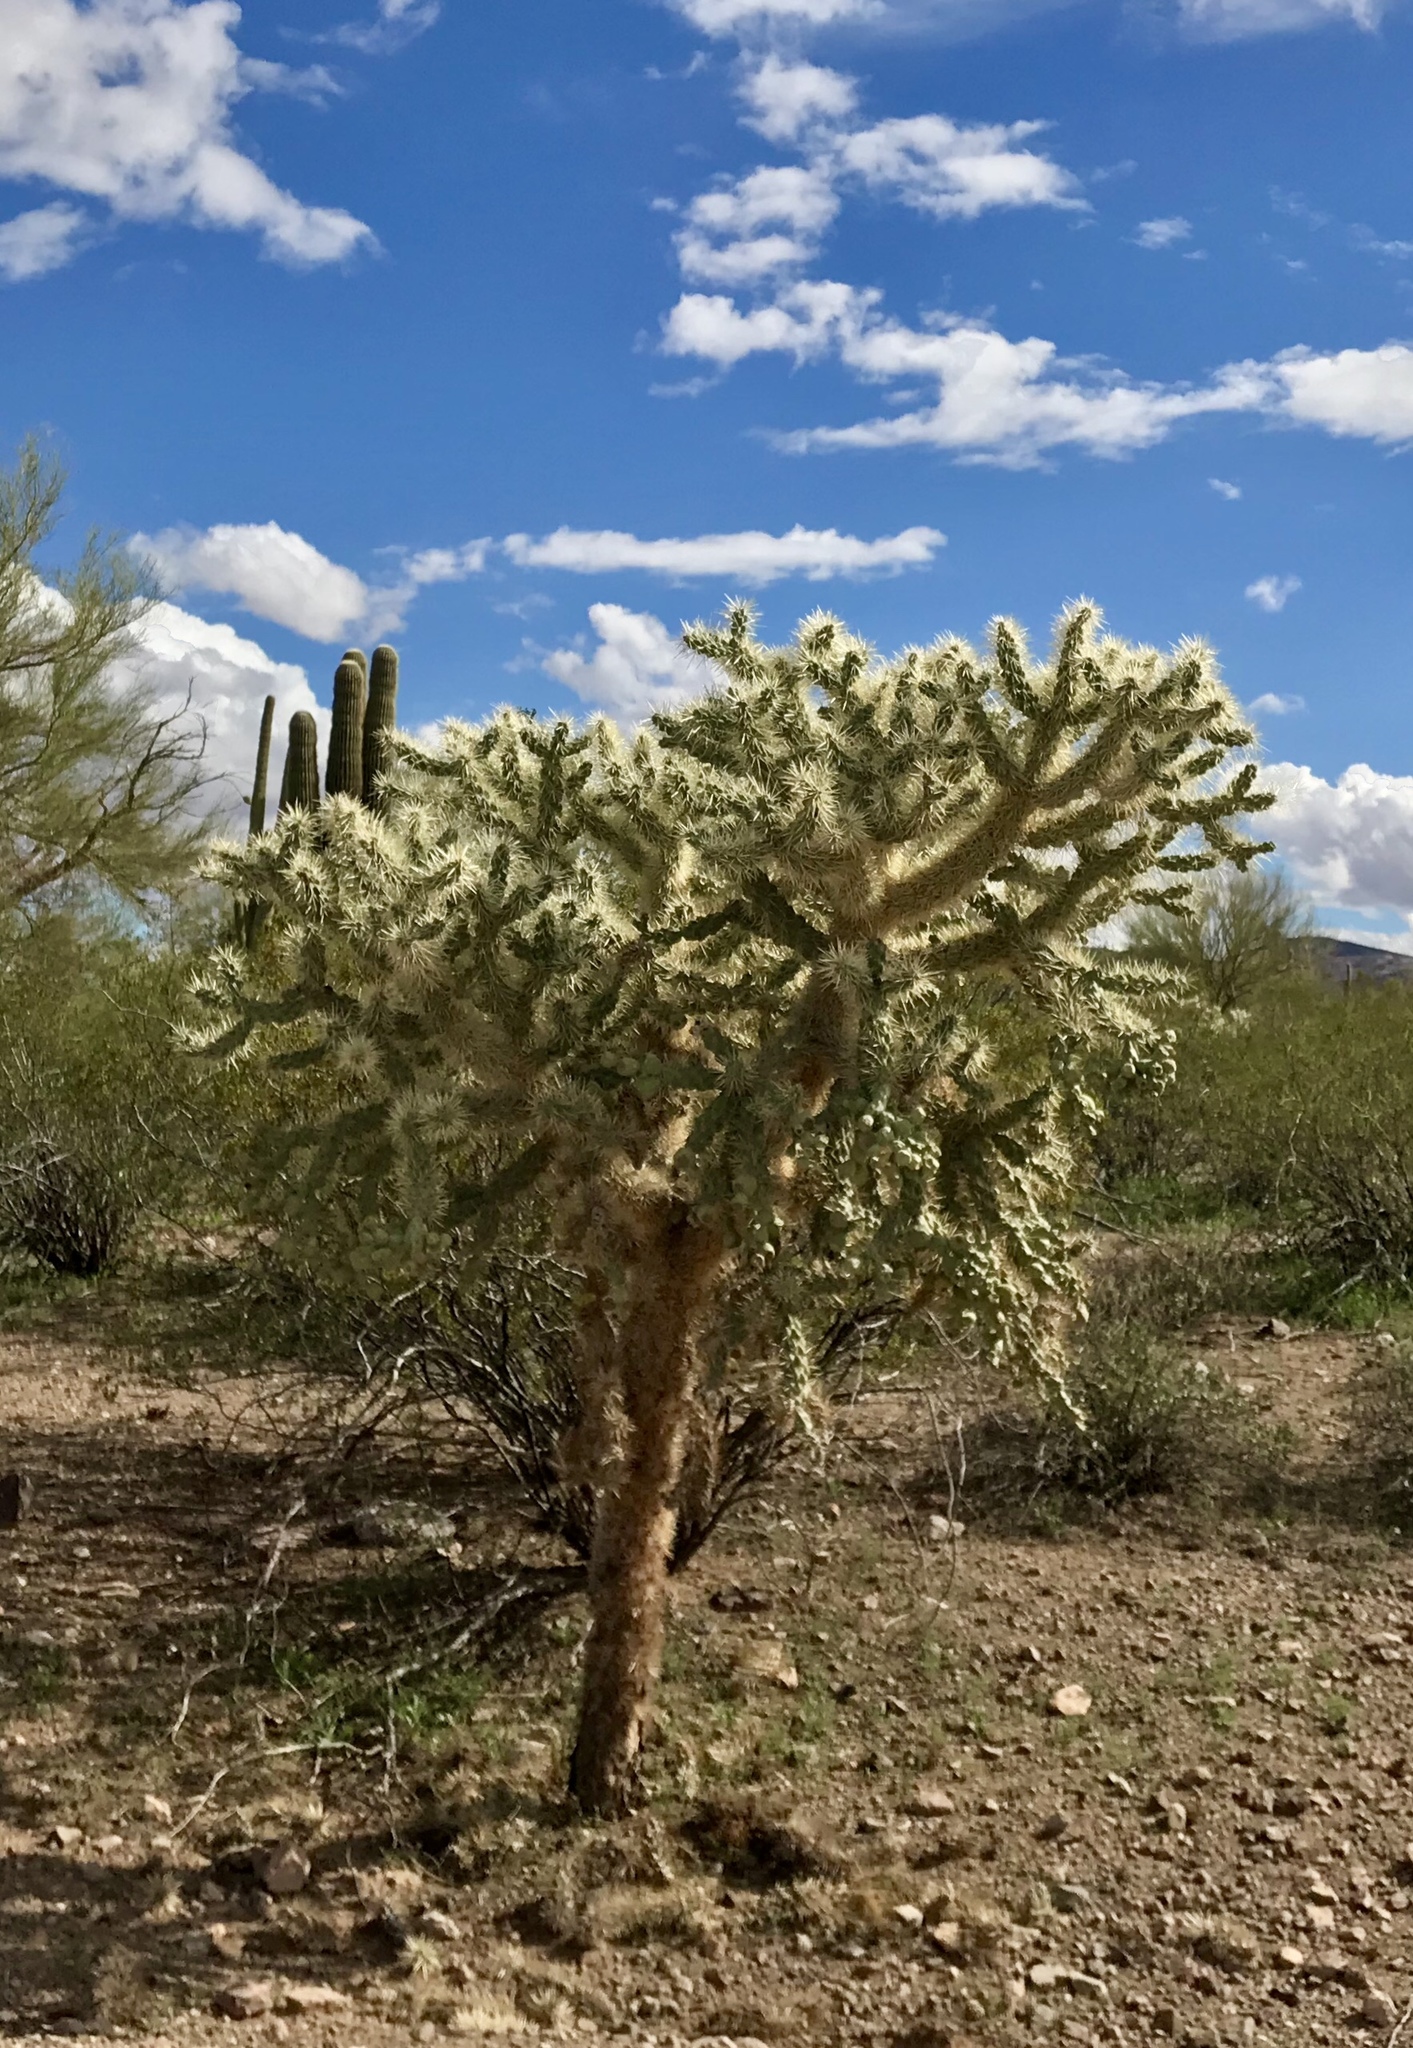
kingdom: Plantae
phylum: Tracheophyta
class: Magnoliopsida
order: Caryophyllales
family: Cactaceae
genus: Cylindropuntia
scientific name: Cylindropuntia fulgida
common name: Jumping cholla
